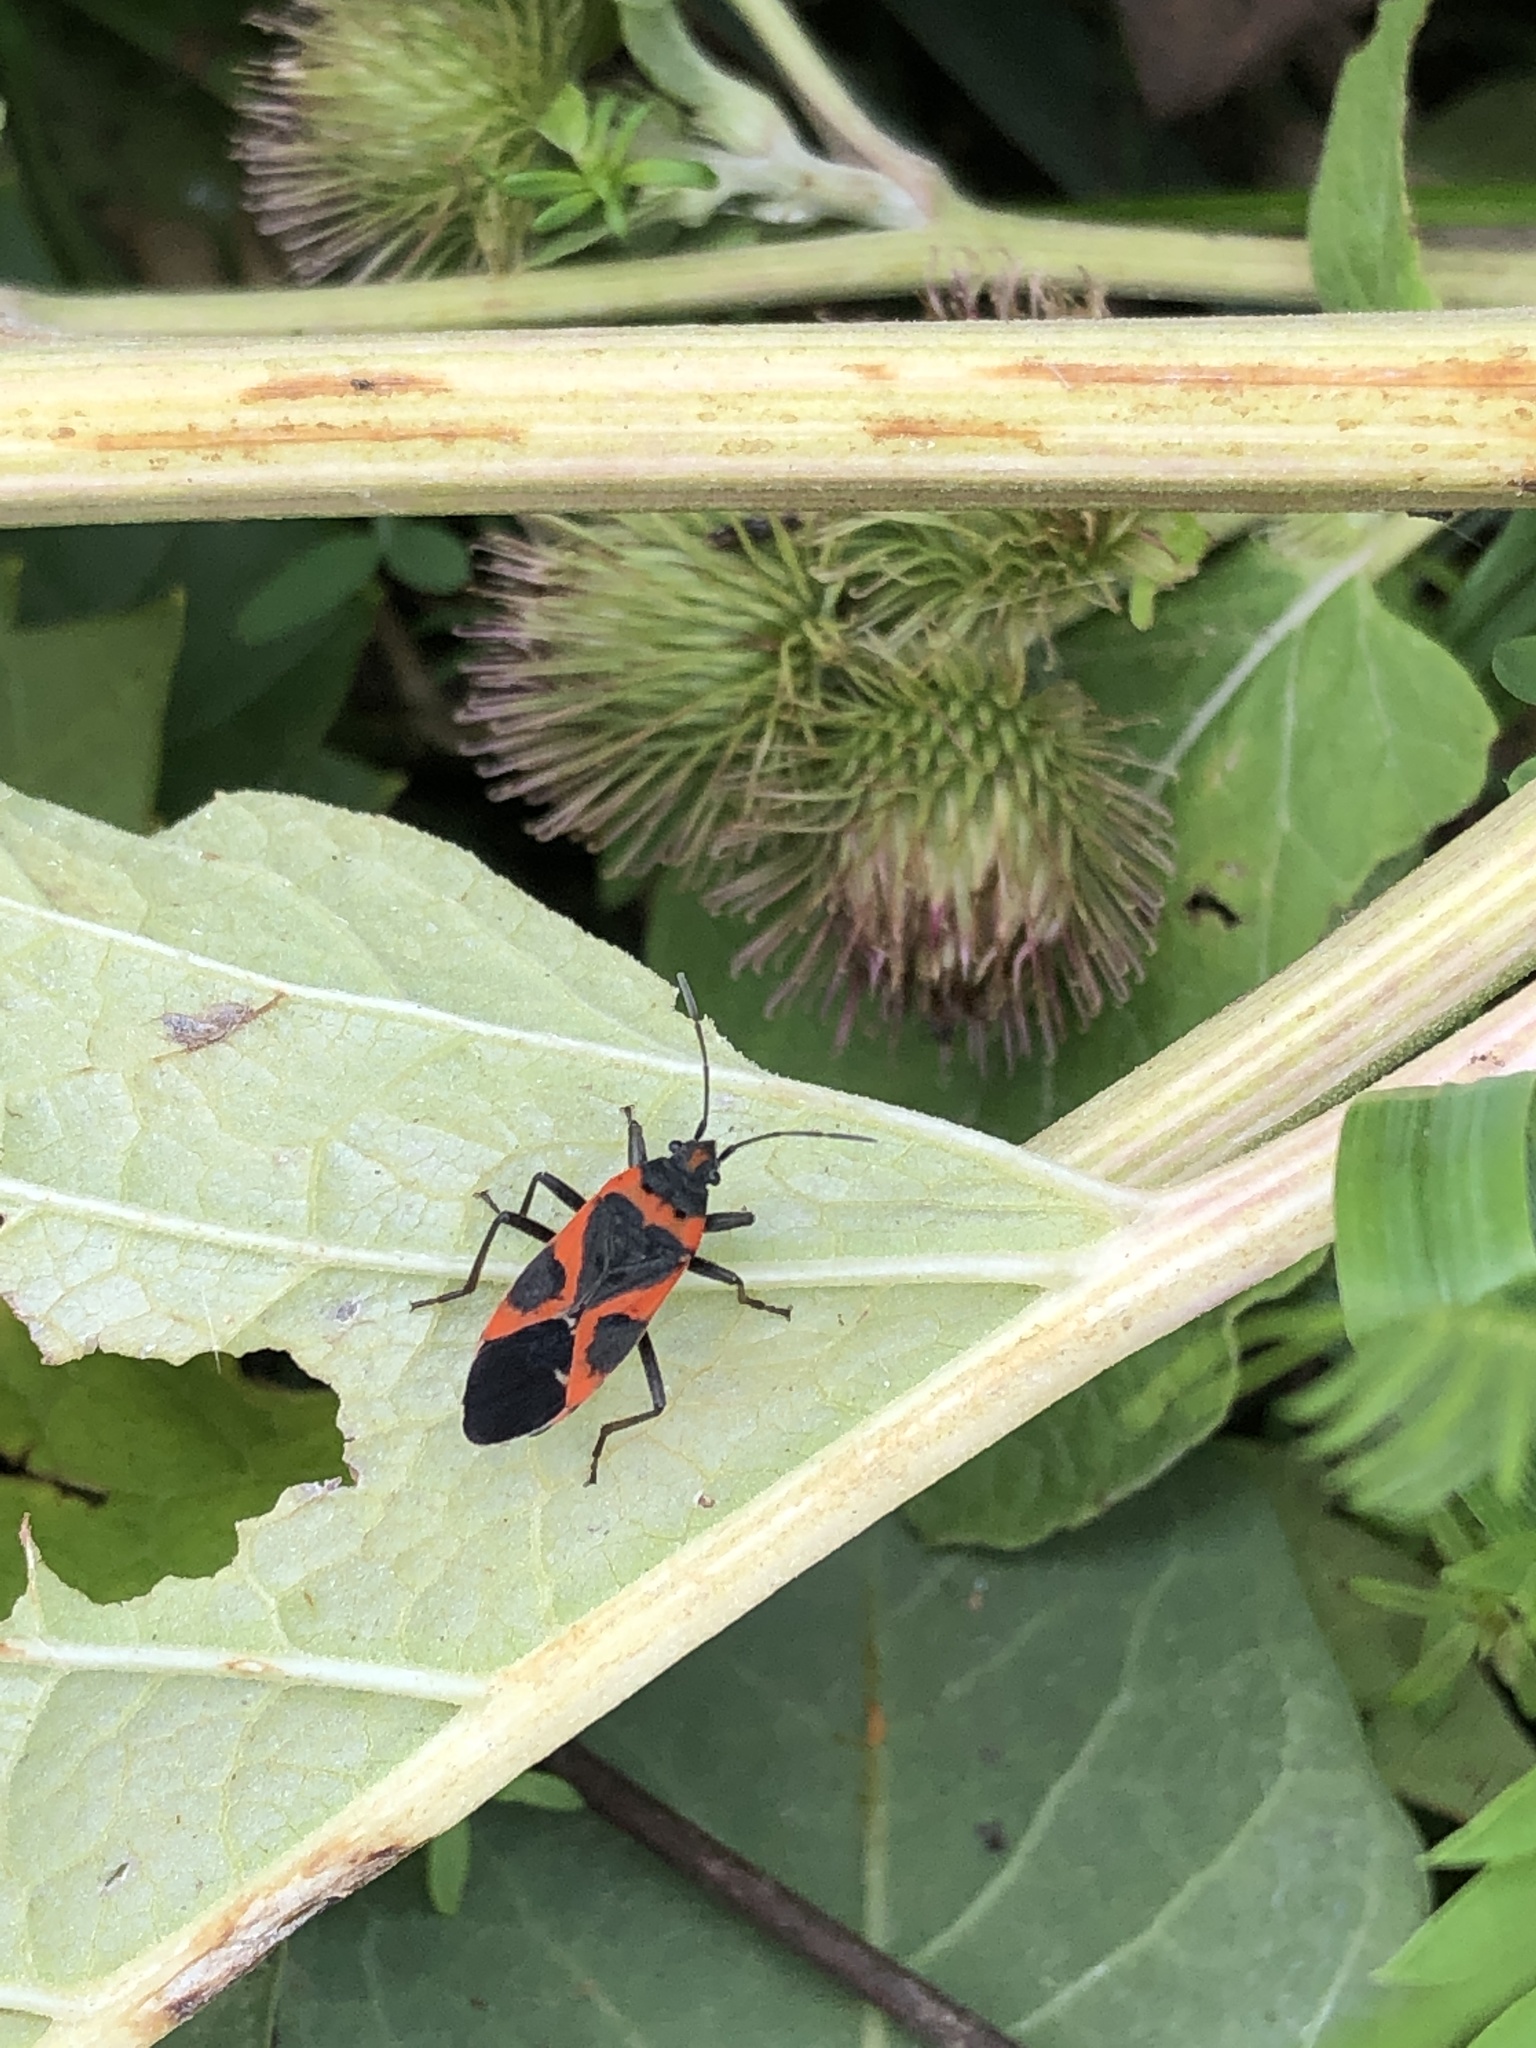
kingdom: Animalia
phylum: Arthropoda
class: Insecta
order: Hemiptera
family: Lygaeidae
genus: Lygaeus
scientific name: Lygaeus kalmii
